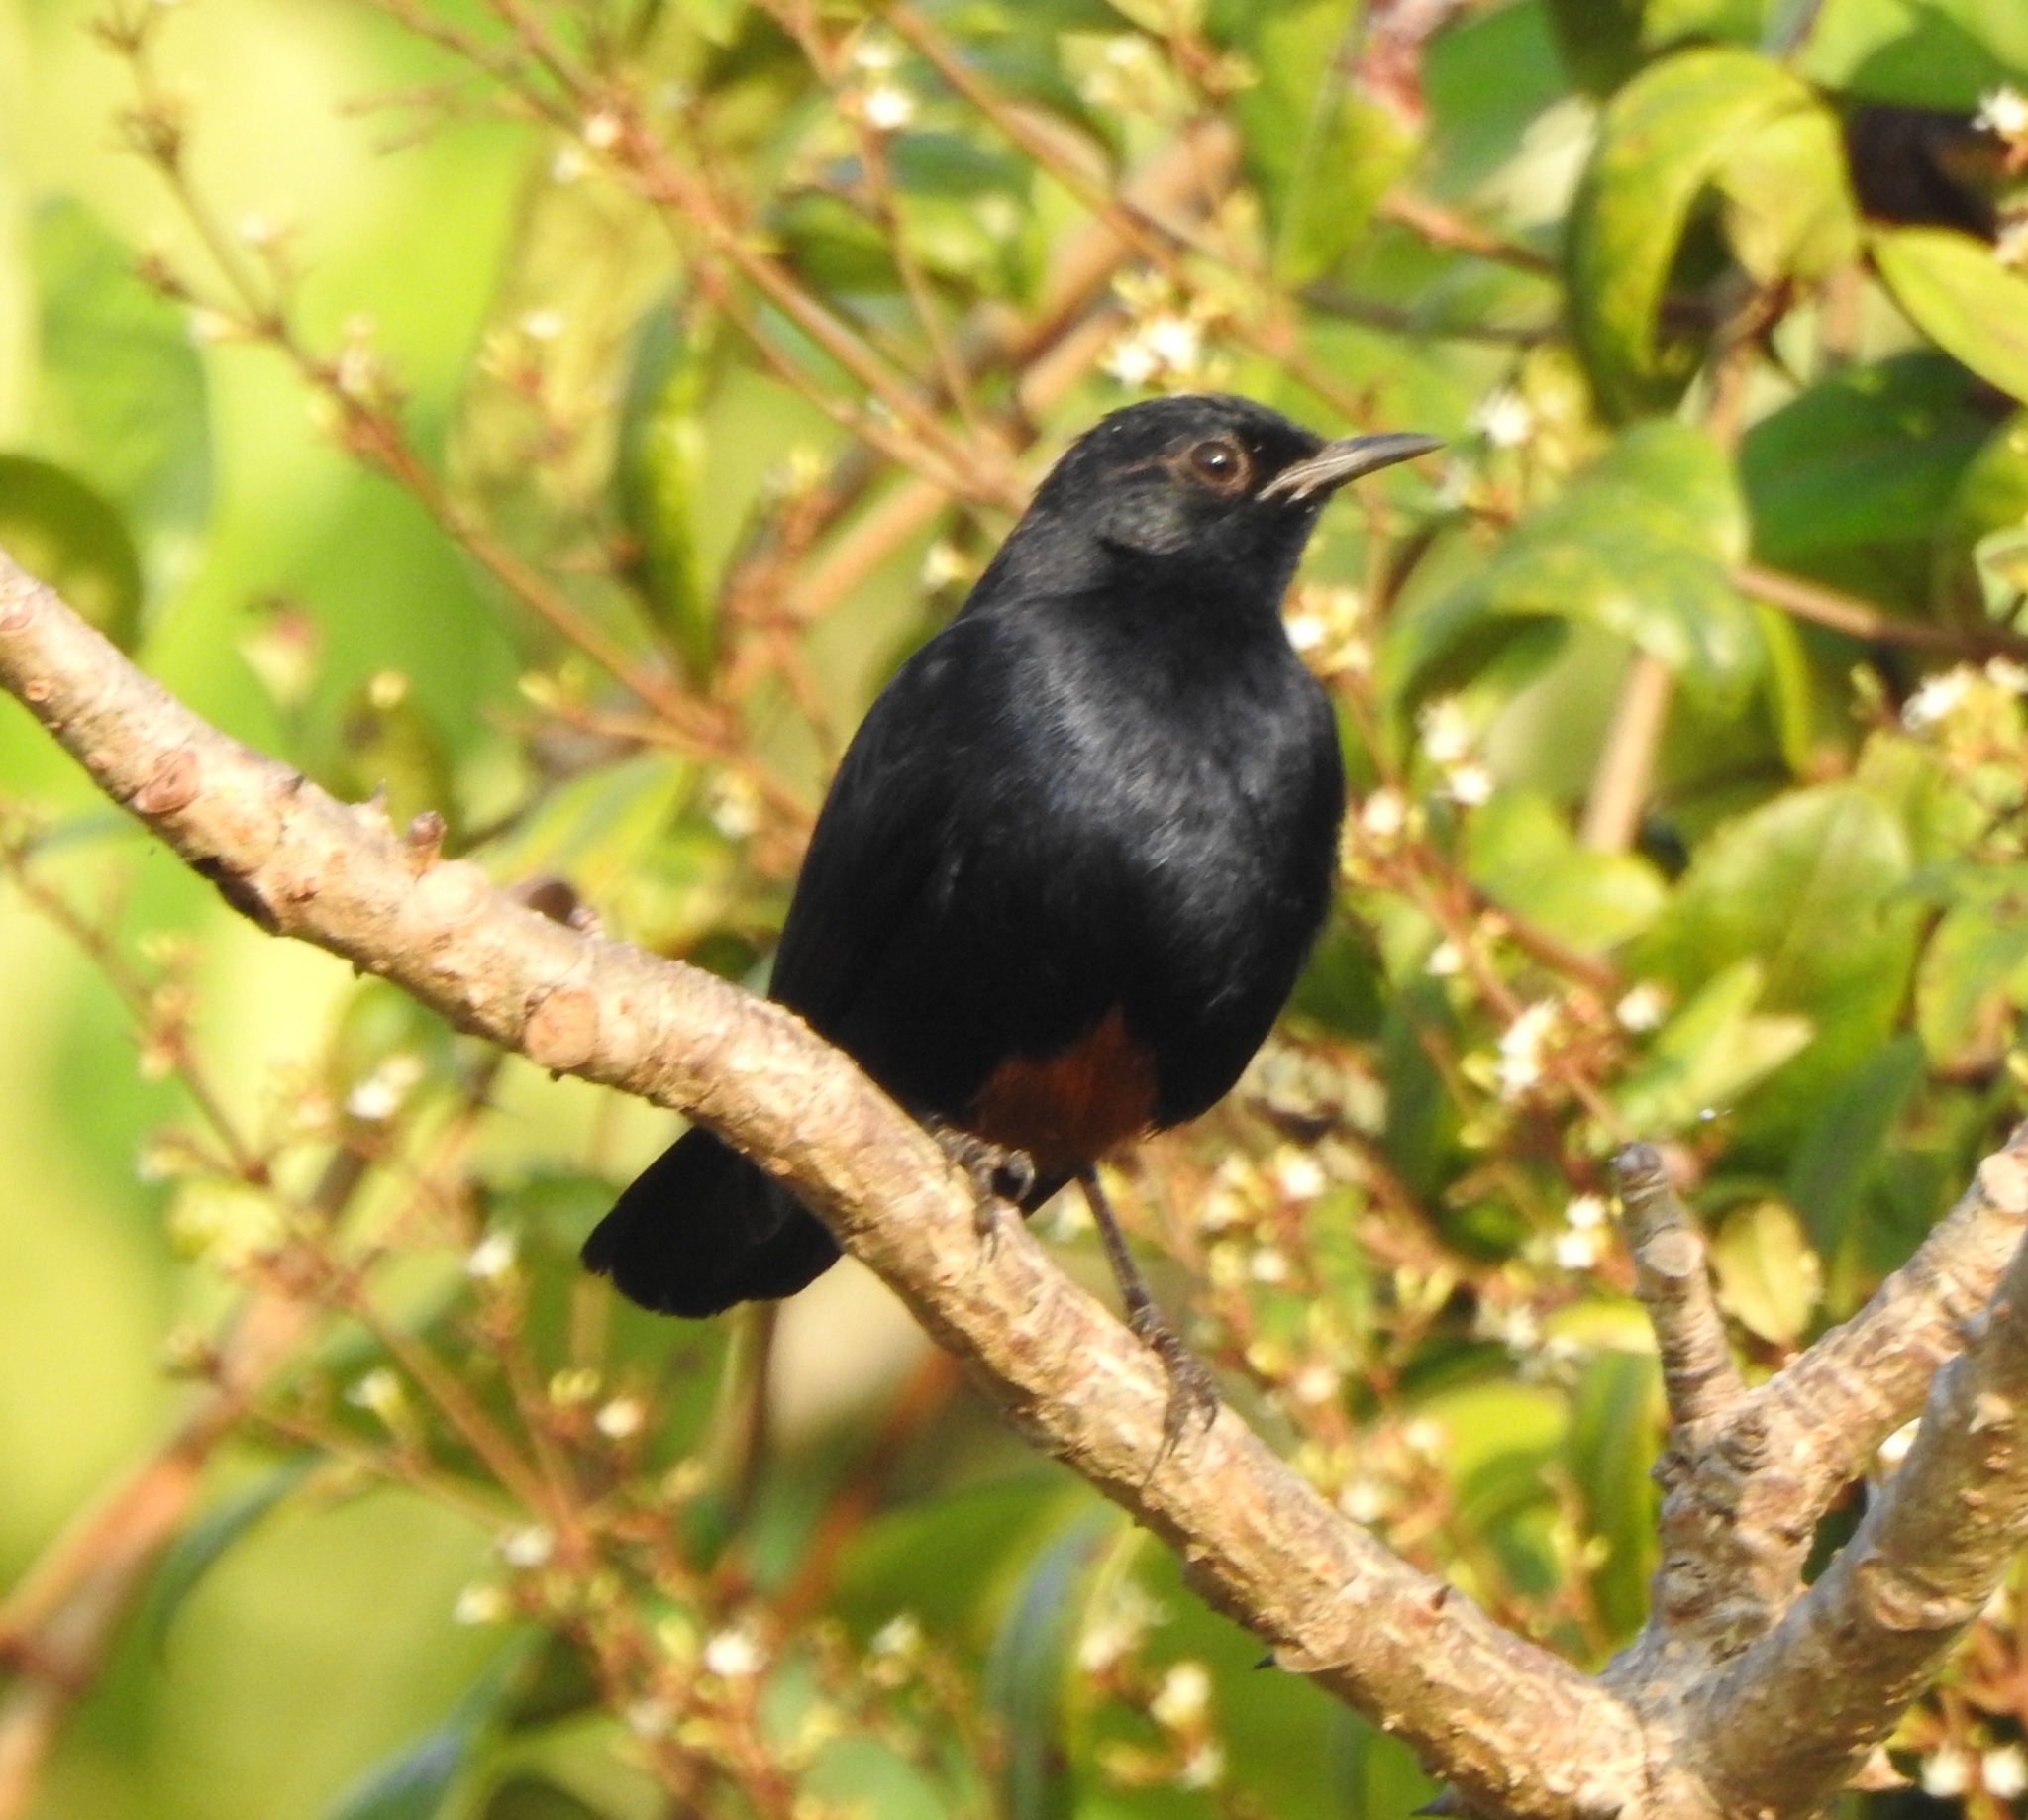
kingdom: Animalia
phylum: Chordata
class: Aves
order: Passeriformes
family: Muscicapidae
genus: Saxicoloides
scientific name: Saxicoloides fulicatus
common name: Indian robin
